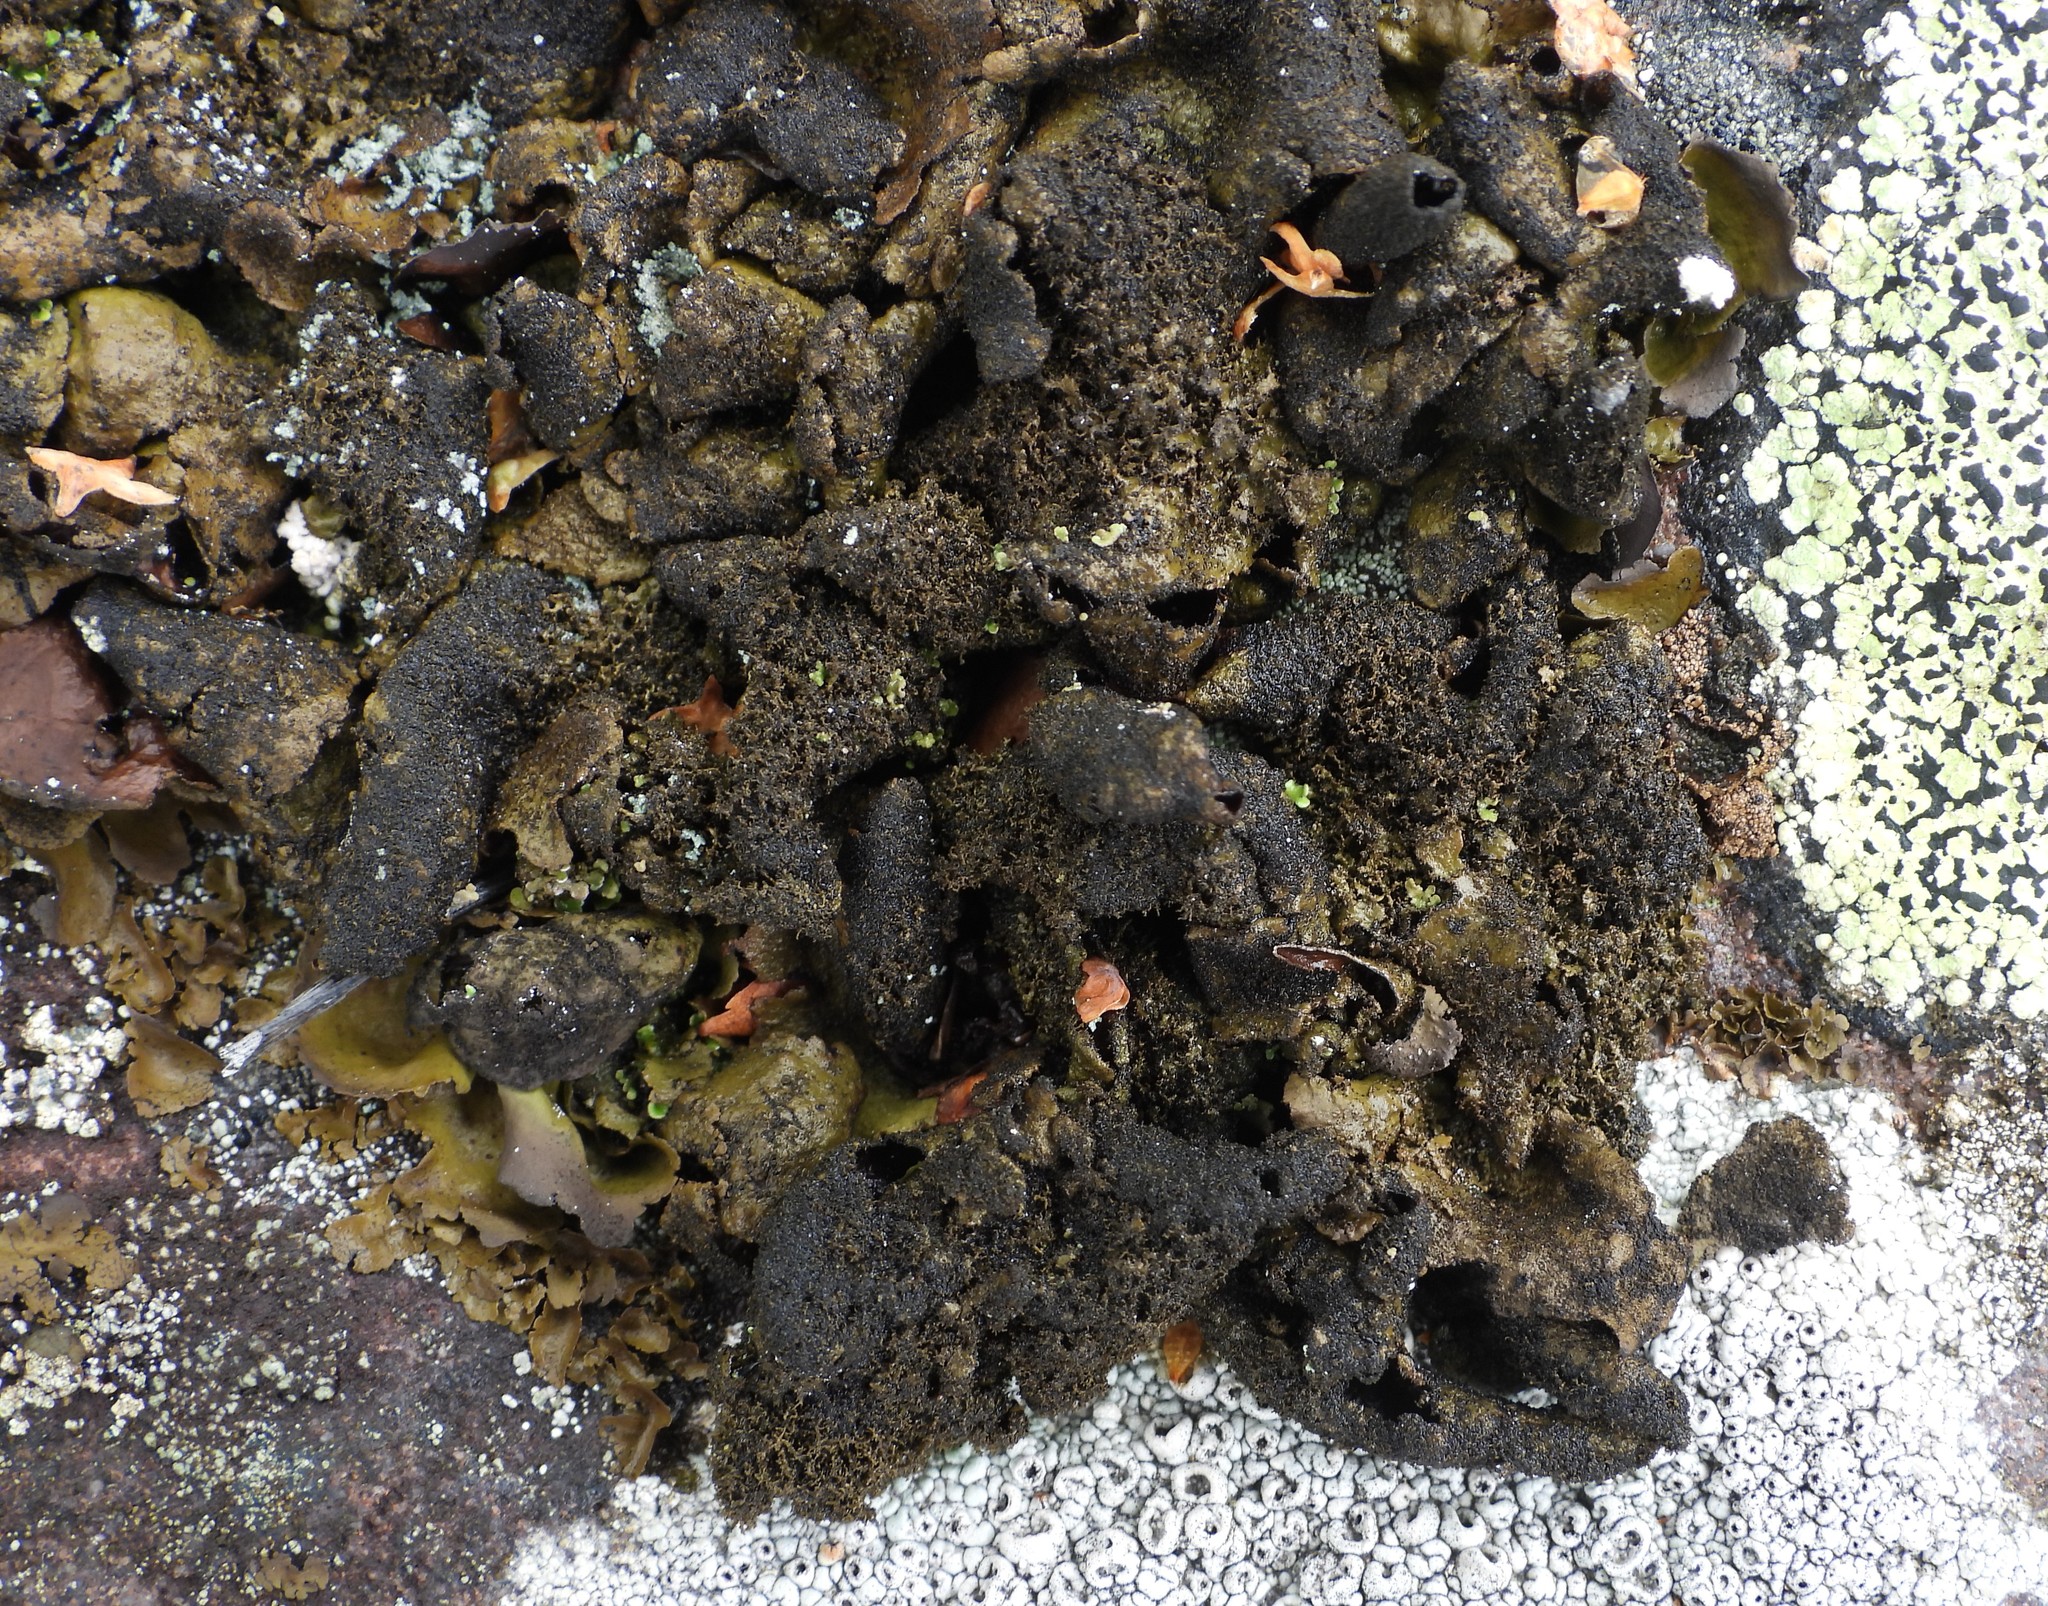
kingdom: Fungi
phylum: Ascomycota
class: Lecanoromycetes
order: Umbilicariales
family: Umbilicariaceae
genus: Umbilicaria
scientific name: Umbilicaria deusta
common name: Peppered rock tripe
